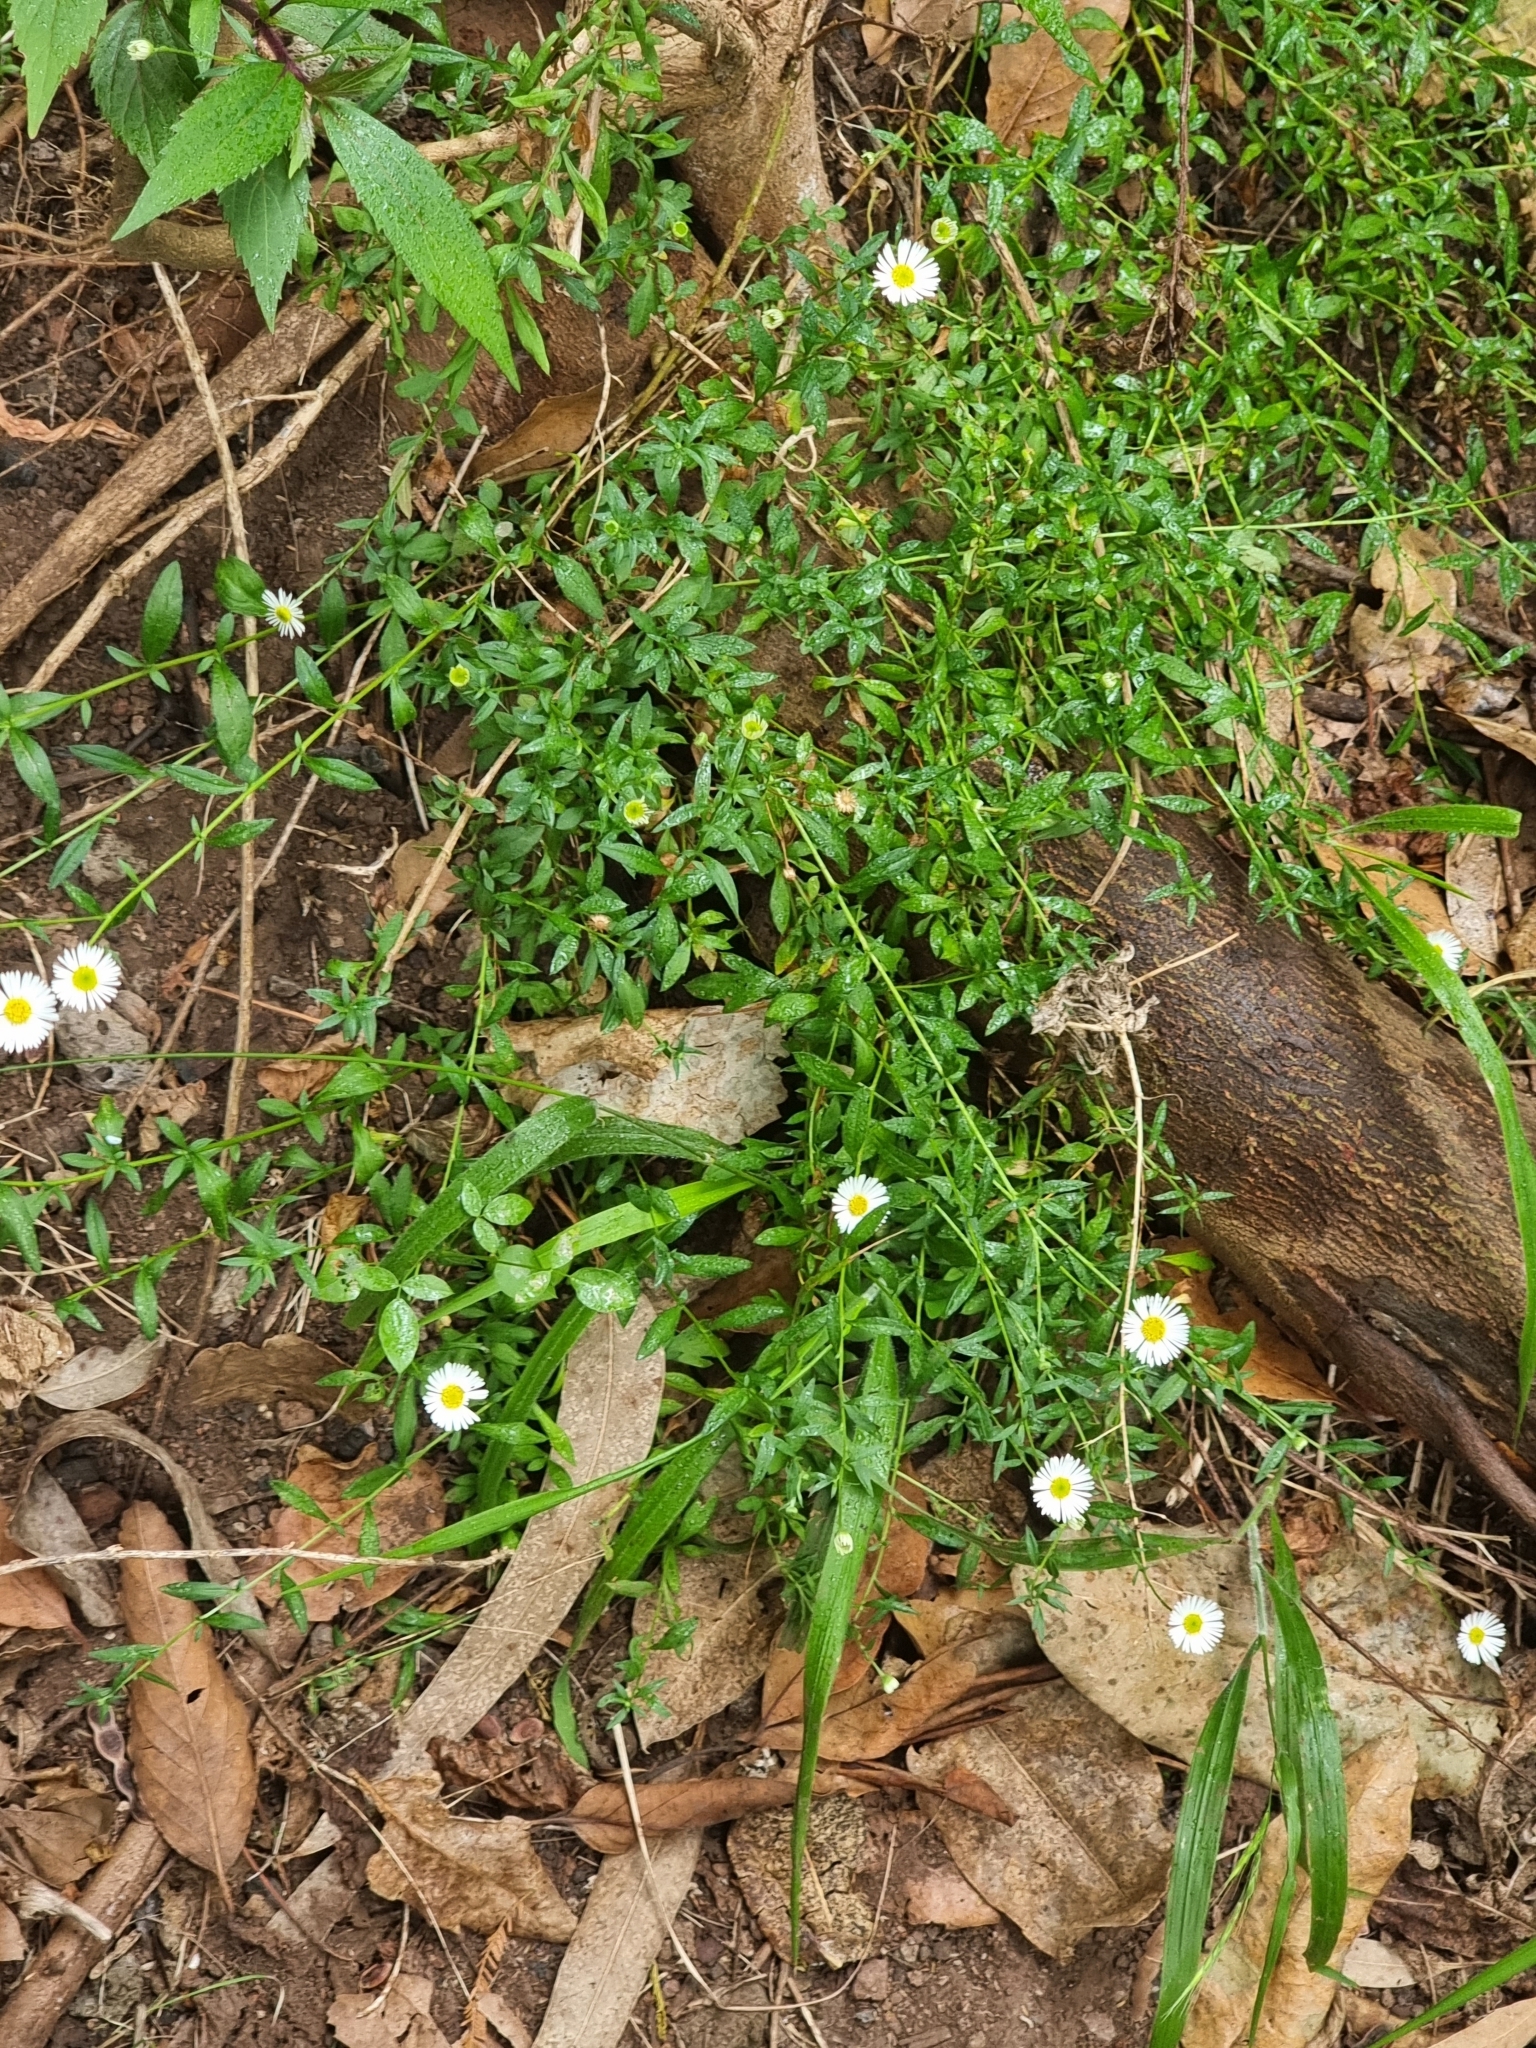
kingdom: Plantae
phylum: Tracheophyta
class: Magnoliopsida
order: Asterales
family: Asteraceae
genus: Erigeron
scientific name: Erigeron karvinskianus
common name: Mexican fleabane
